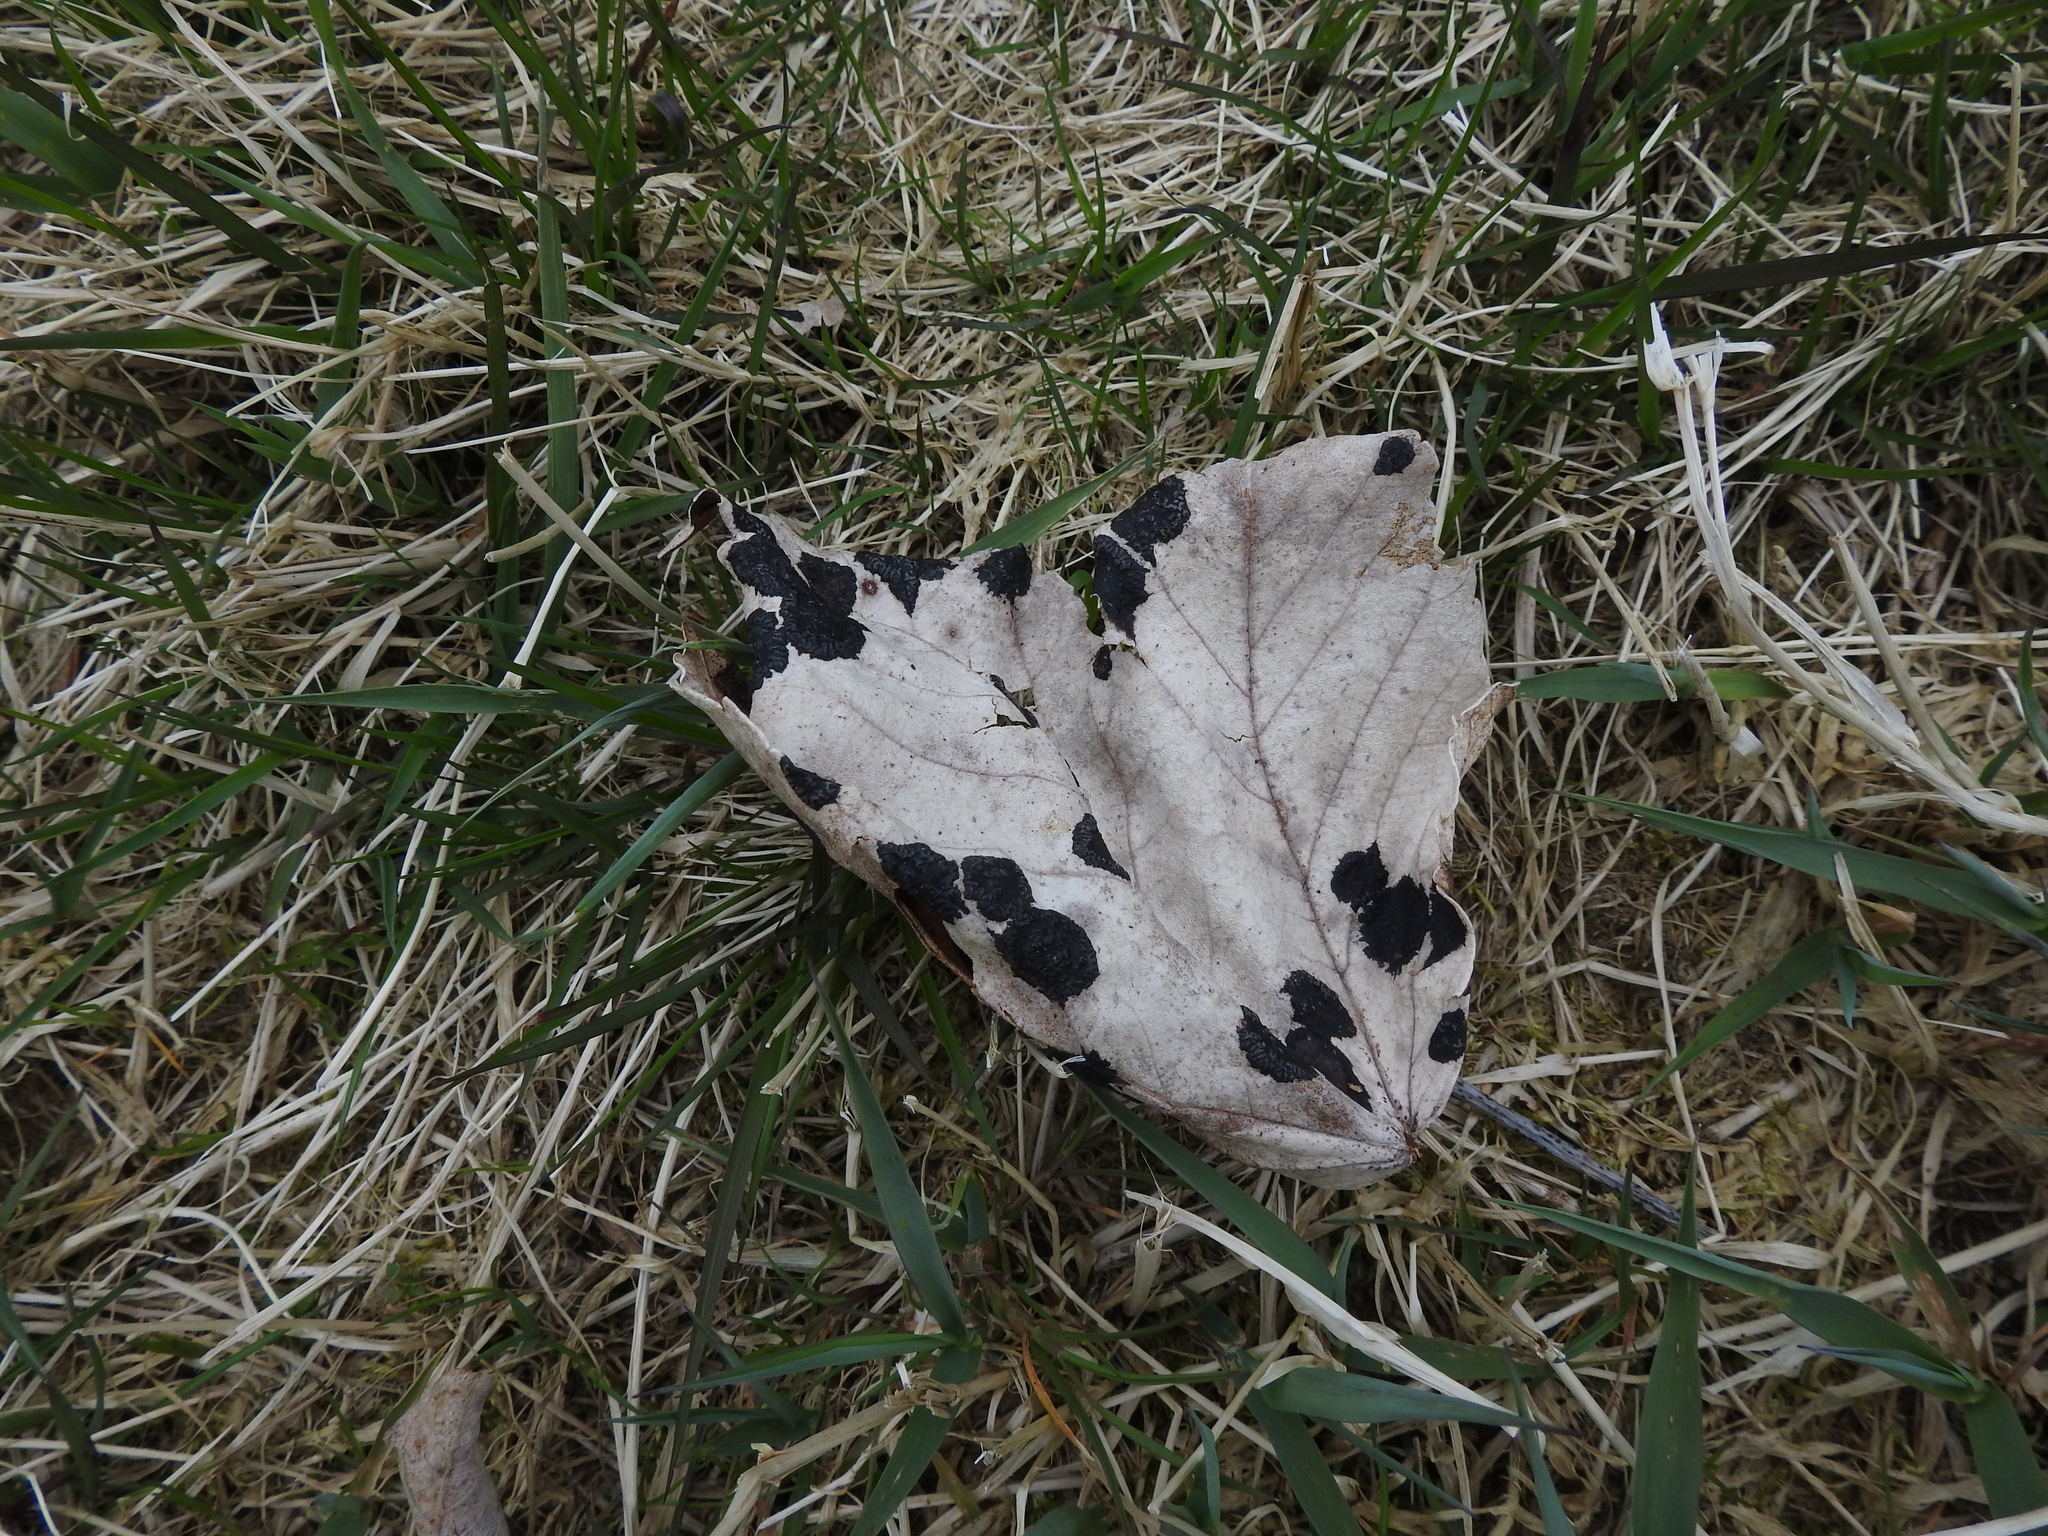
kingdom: Fungi
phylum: Ascomycota
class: Leotiomycetes
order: Rhytismatales
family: Rhytismataceae
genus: Rhytisma
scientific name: Rhytisma acerinum
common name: European tar spot
